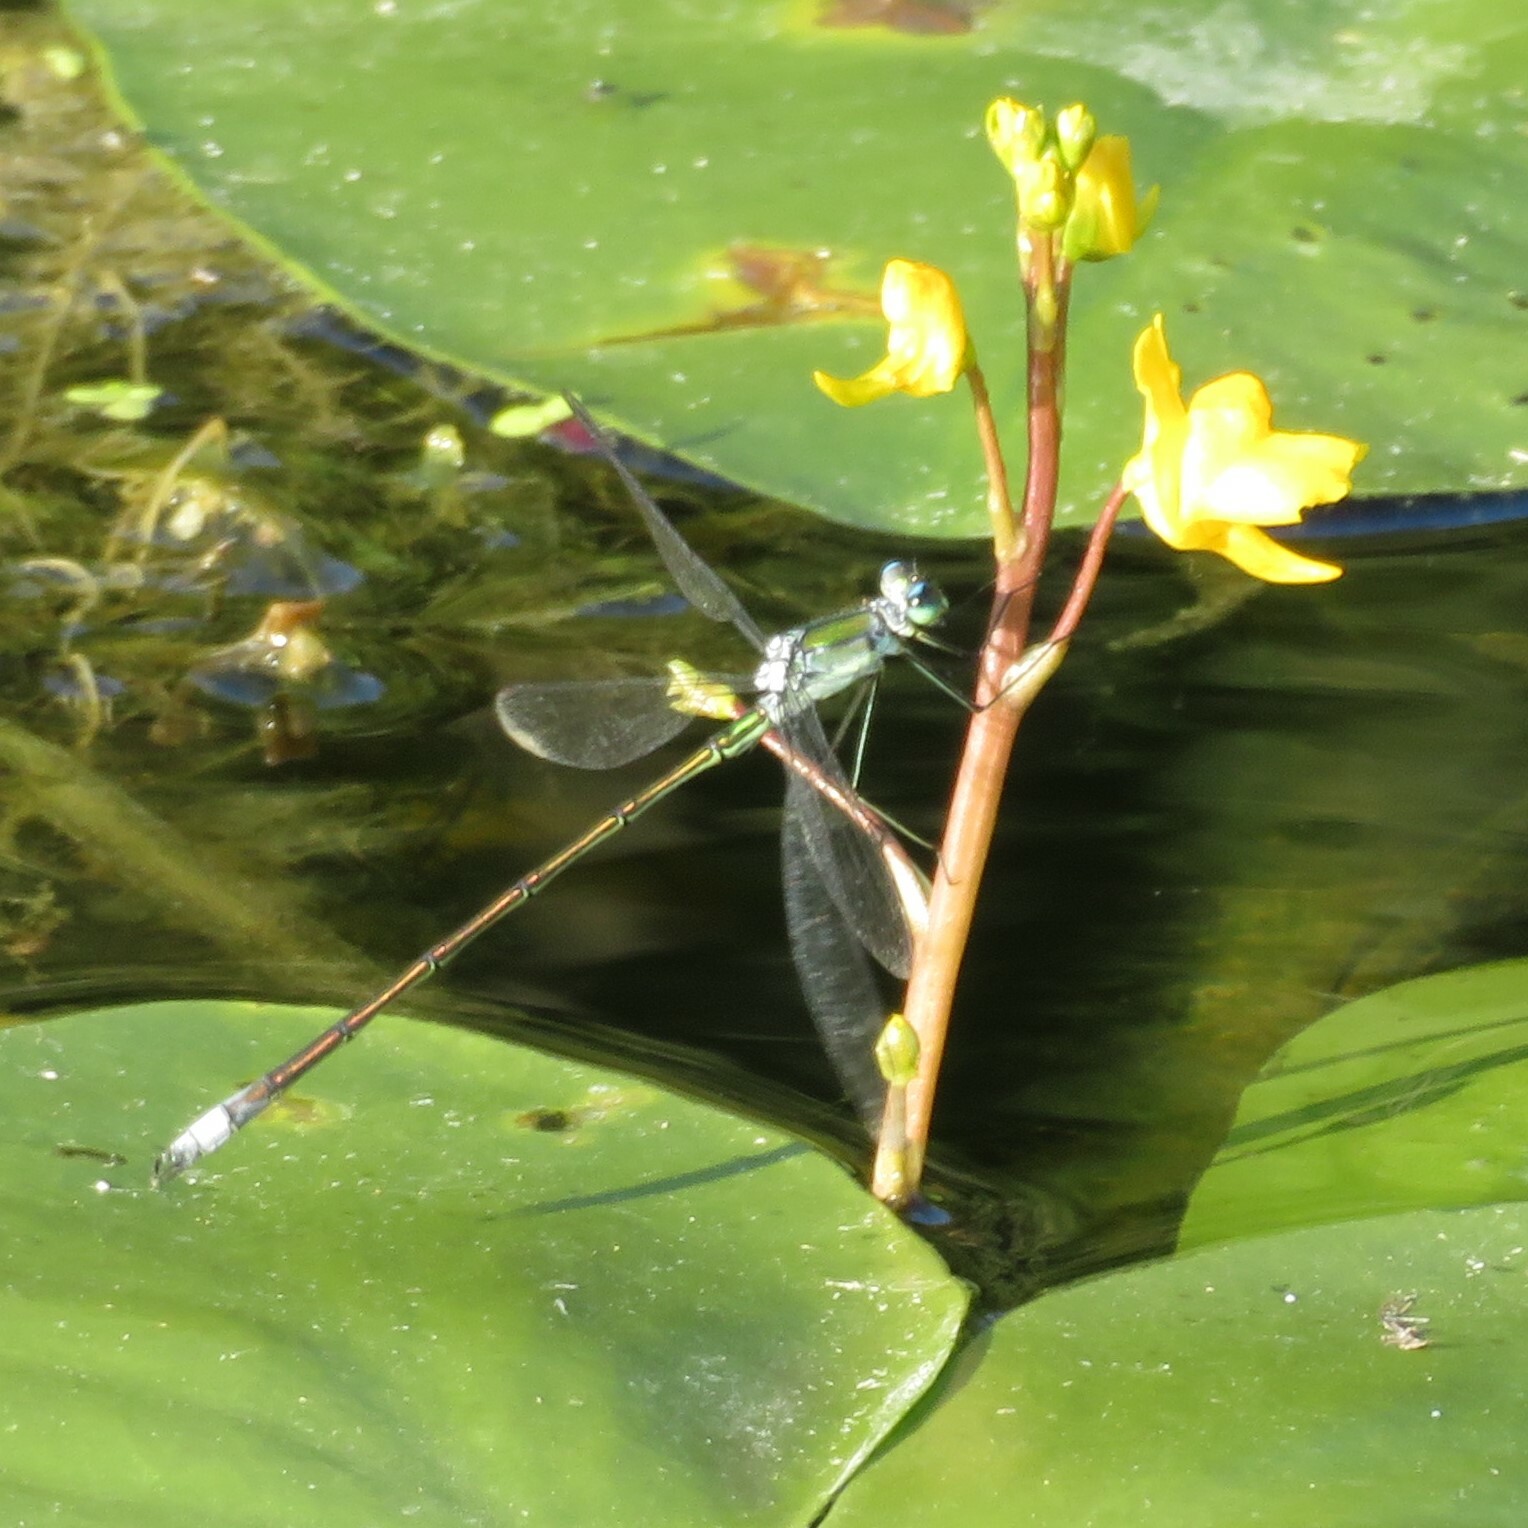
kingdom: Plantae
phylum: Tracheophyta
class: Magnoliopsida
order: Lamiales
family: Lentibulariaceae
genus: Utricularia
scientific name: Utricularia macrorhiza
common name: Common bladderwort
